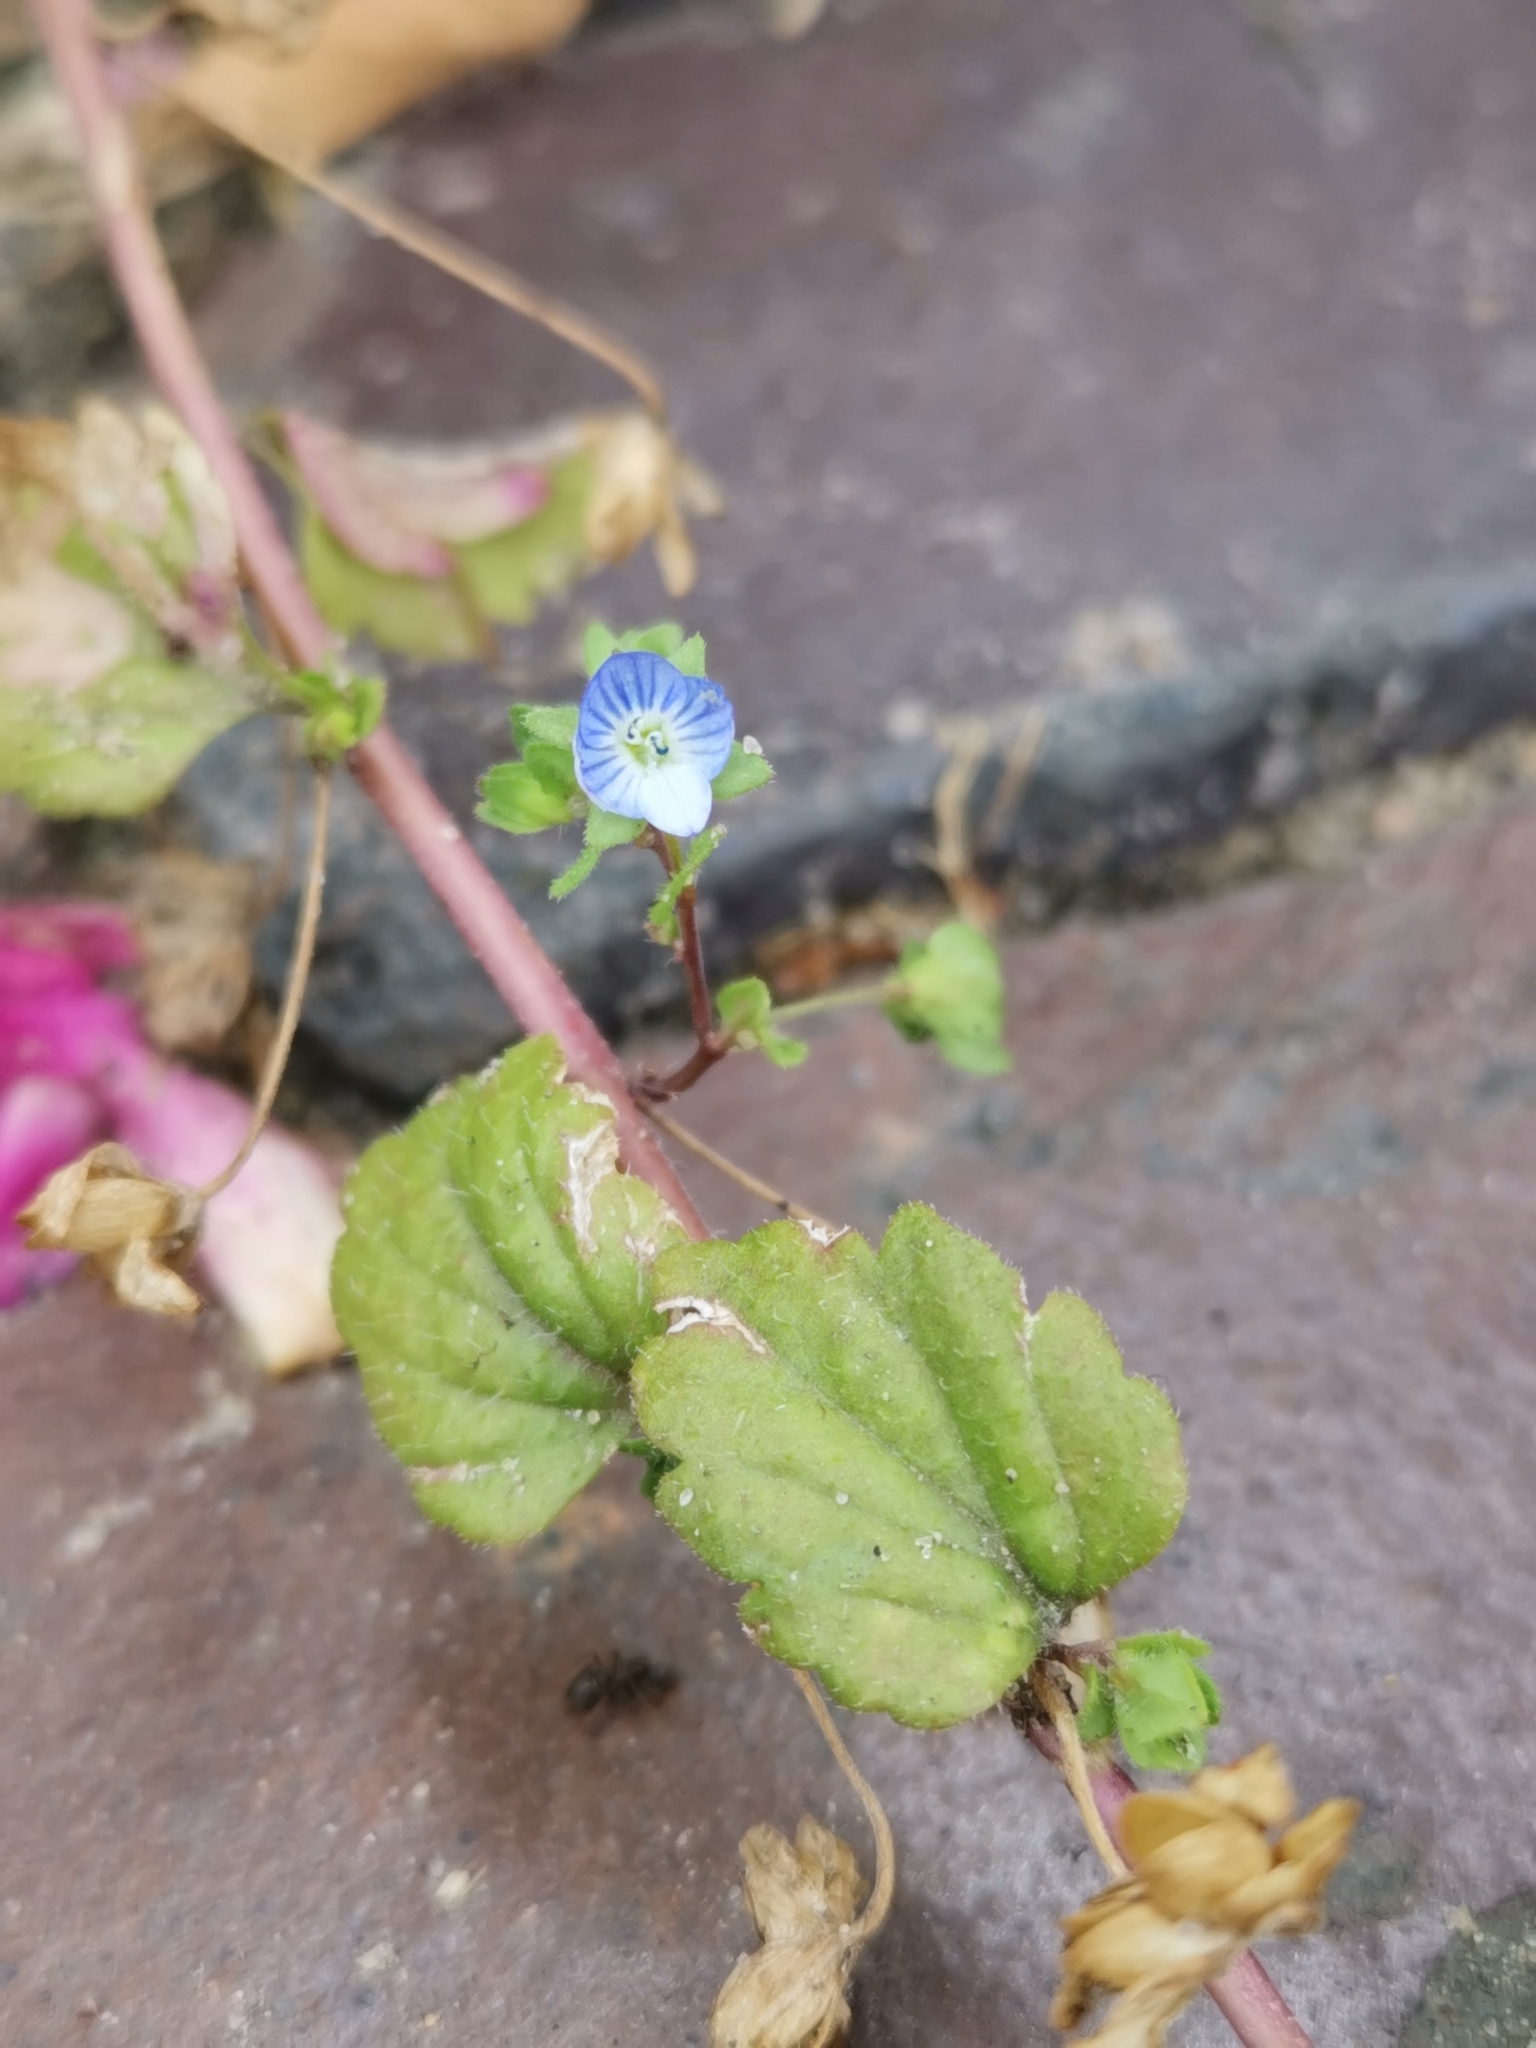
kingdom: Plantae
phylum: Tracheophyta
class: Magnoliopsida
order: Lamiales
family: Plantaginaceae
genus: Veronica
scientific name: Veronica persica
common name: Common field-speedwell
